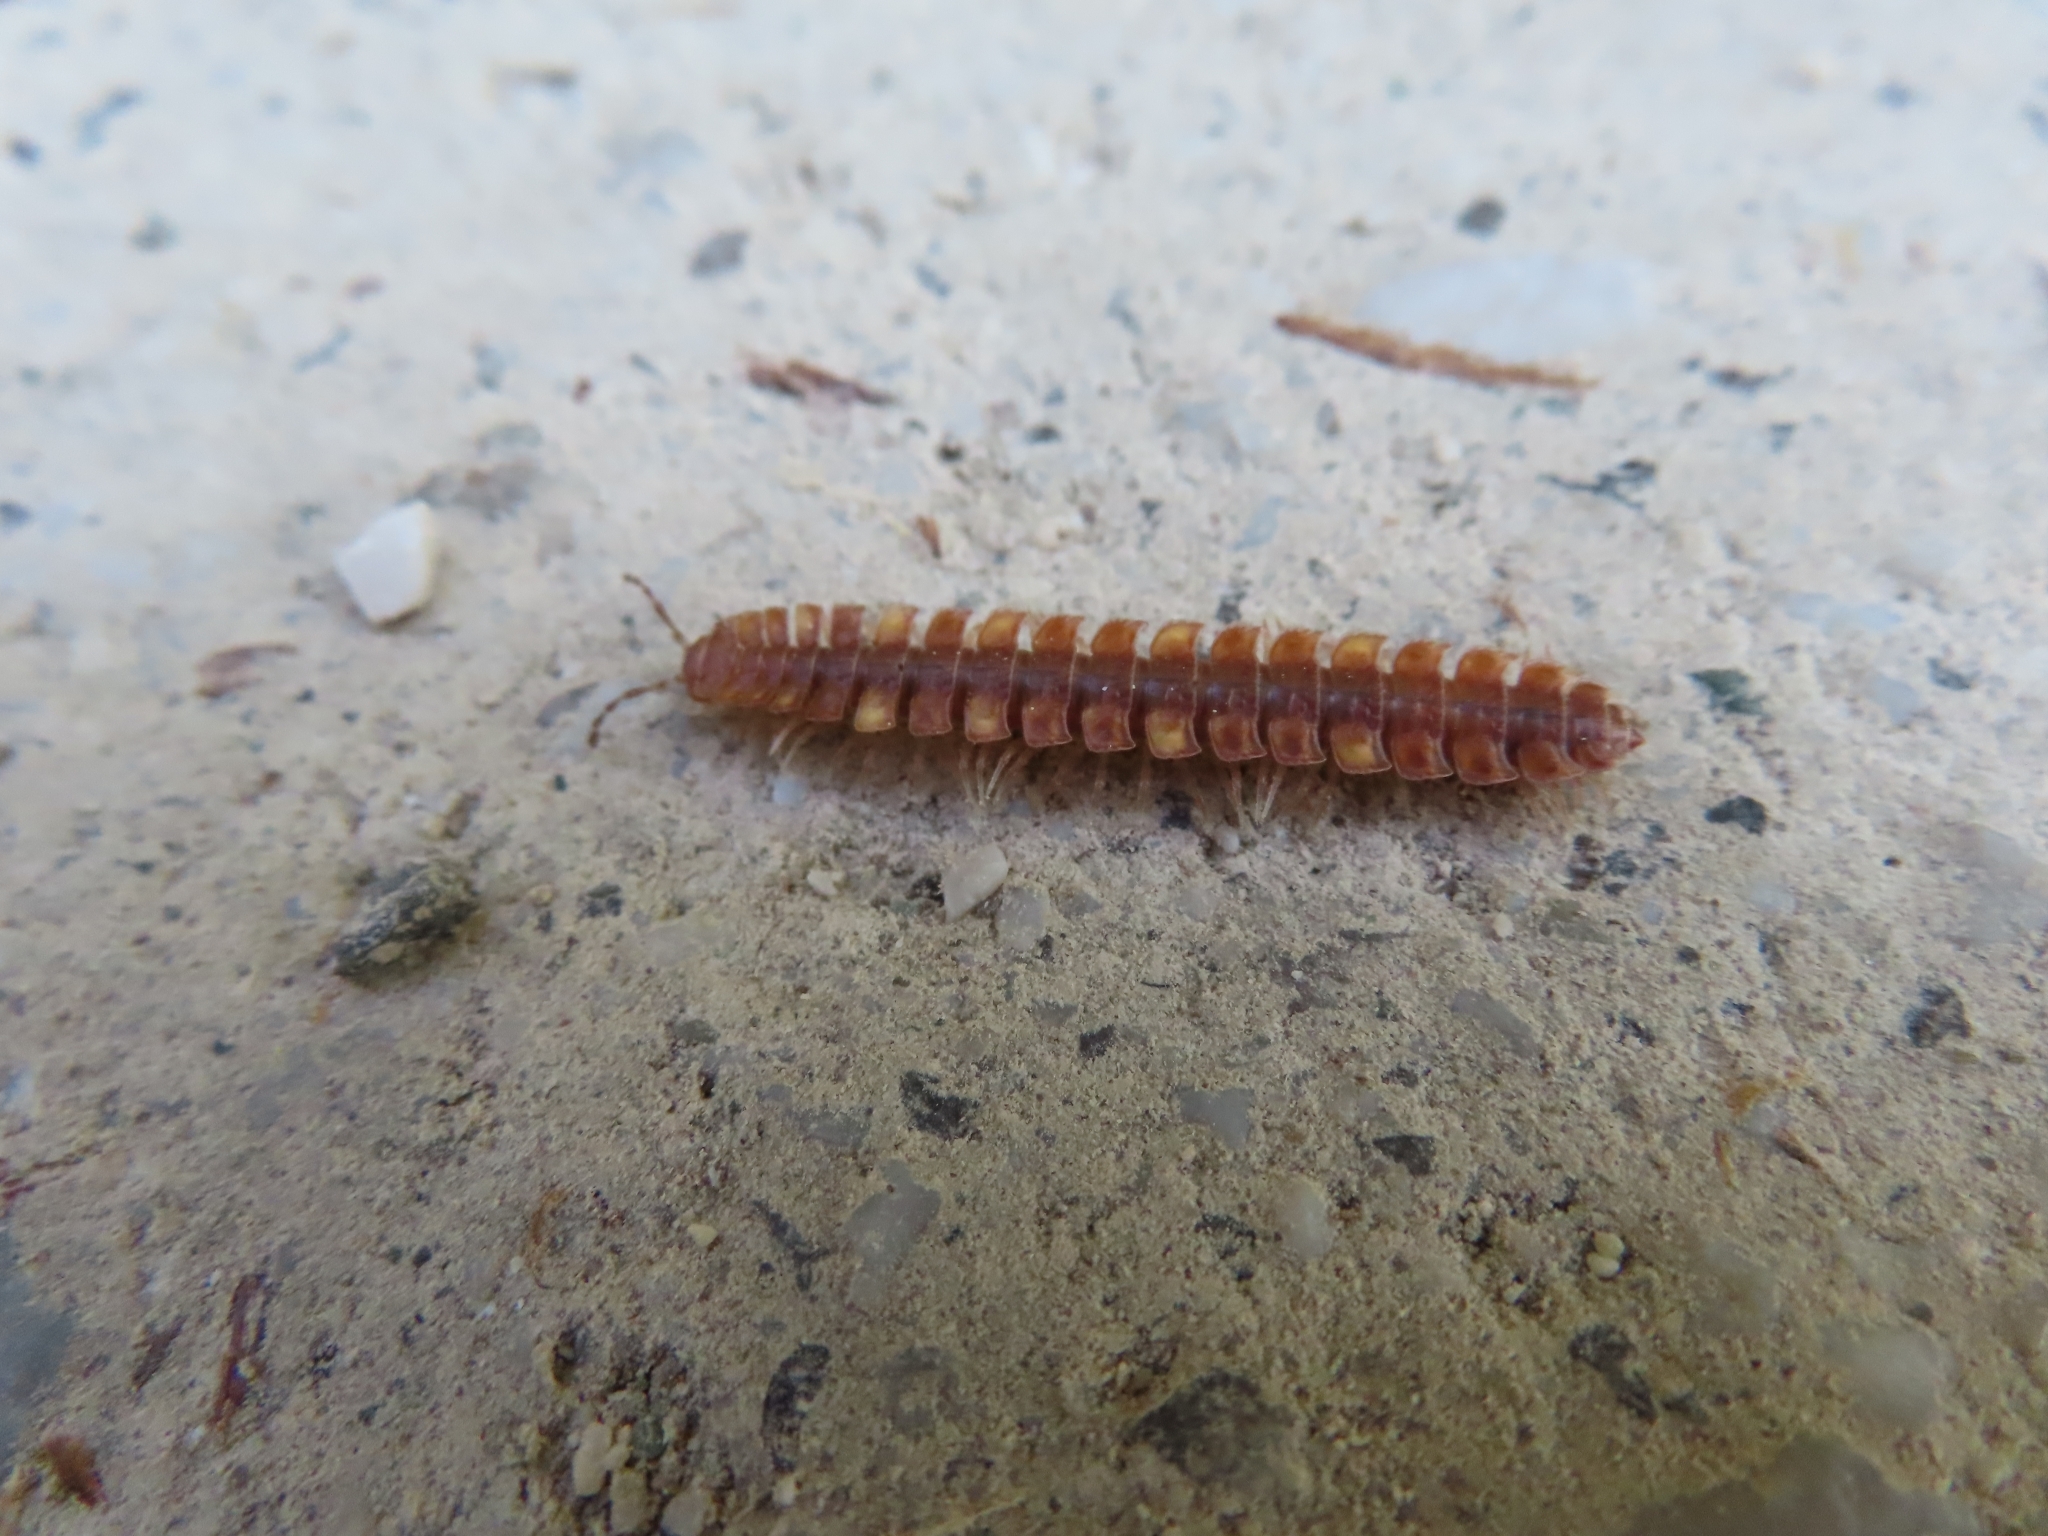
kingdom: Animalia
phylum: Arthropoda
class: Diplopoda
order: Polydesmida
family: Polydesmidae
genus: Polydesmus
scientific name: Polydesmus complanatus
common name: Flat-backed millipede
